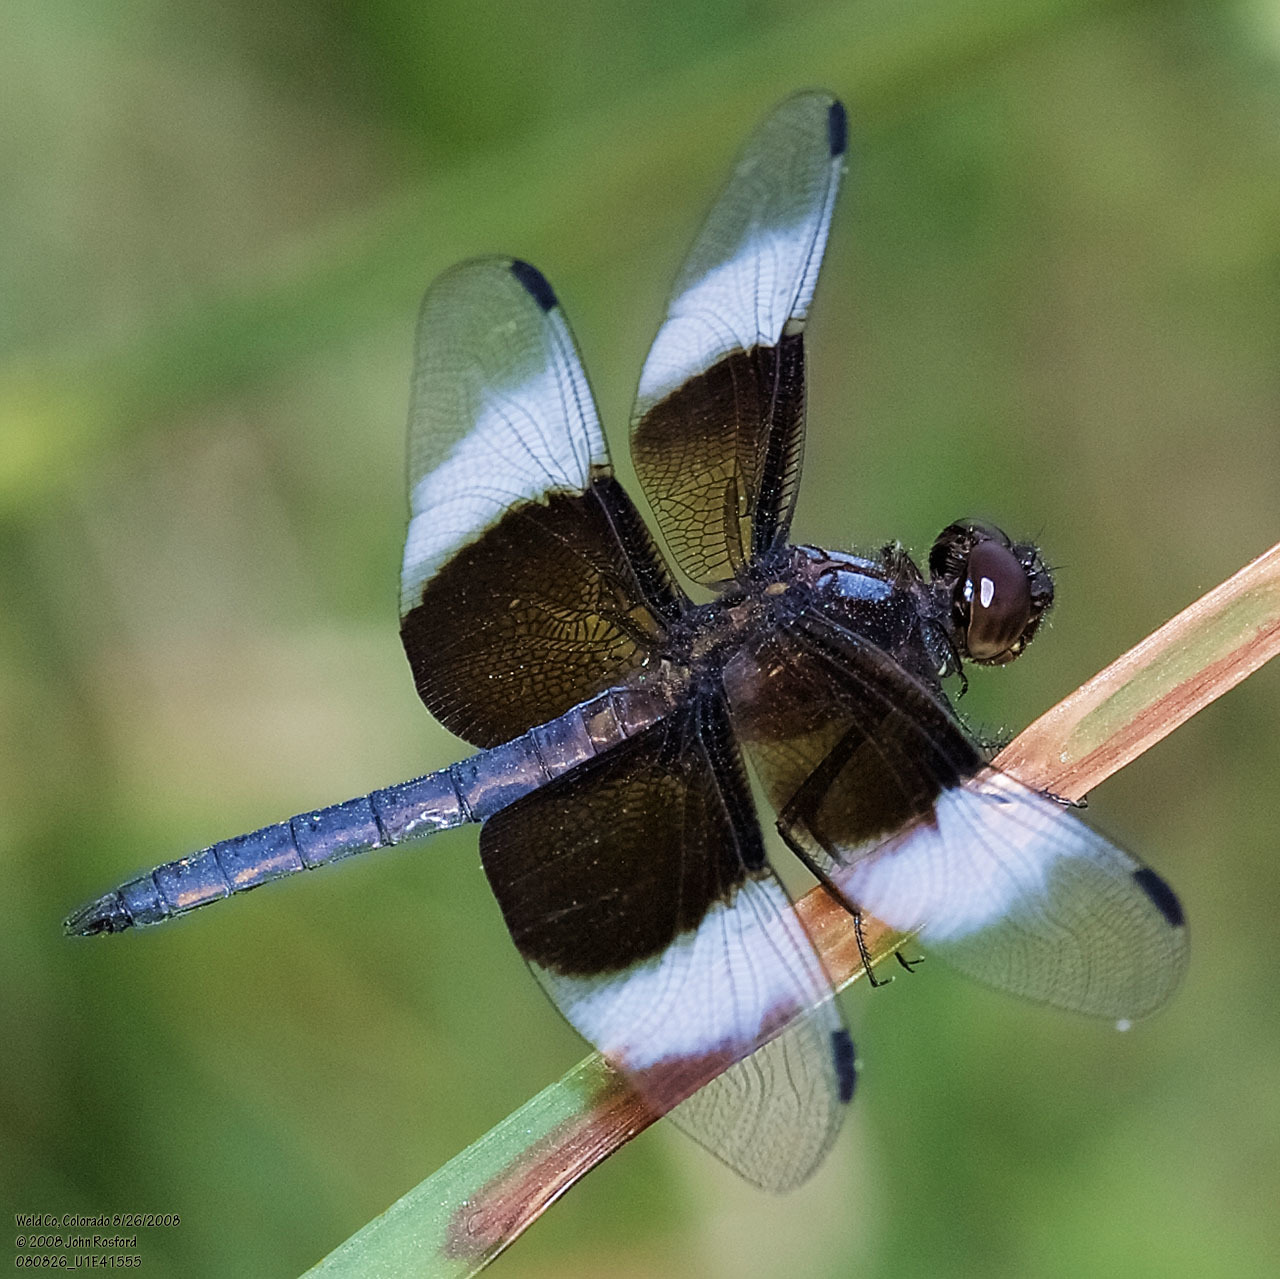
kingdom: Animalia
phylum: Arthropoda
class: Insecta
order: Odonata
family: Libellulidae
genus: Libellula
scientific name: Libellula luctuosa
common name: Widow skimmer
